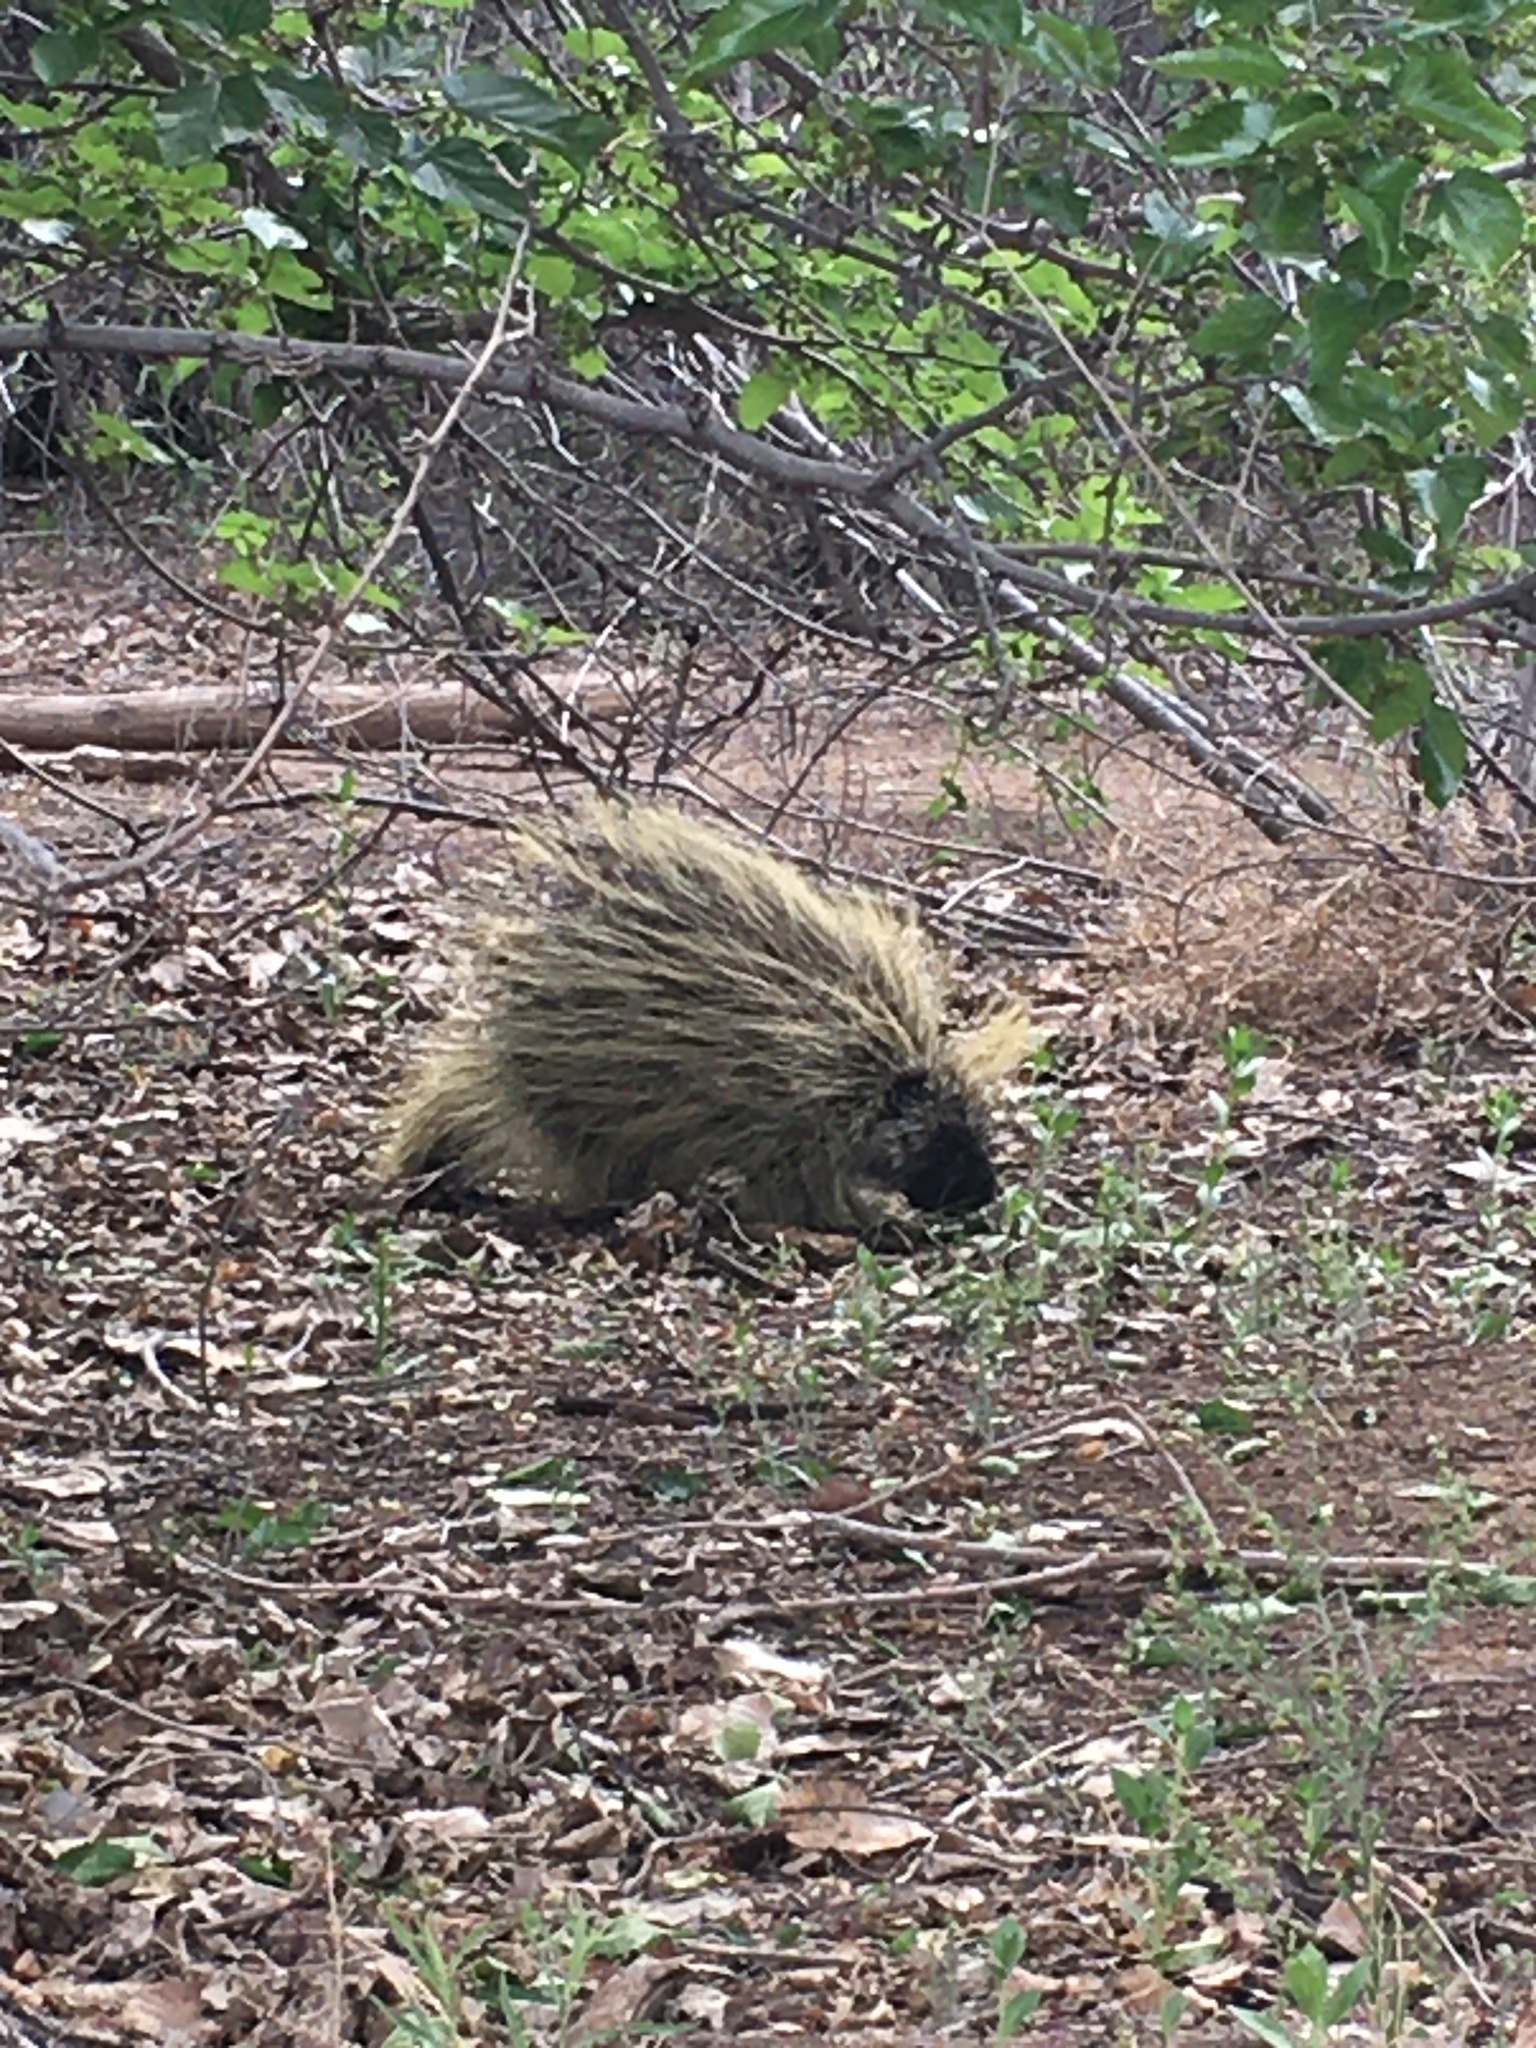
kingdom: Animalia
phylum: Chordata
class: Mammalia
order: Rodentia
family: Erethizontidae
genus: Erethizon
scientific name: Erethizon dorsatus
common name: North american porcupine
